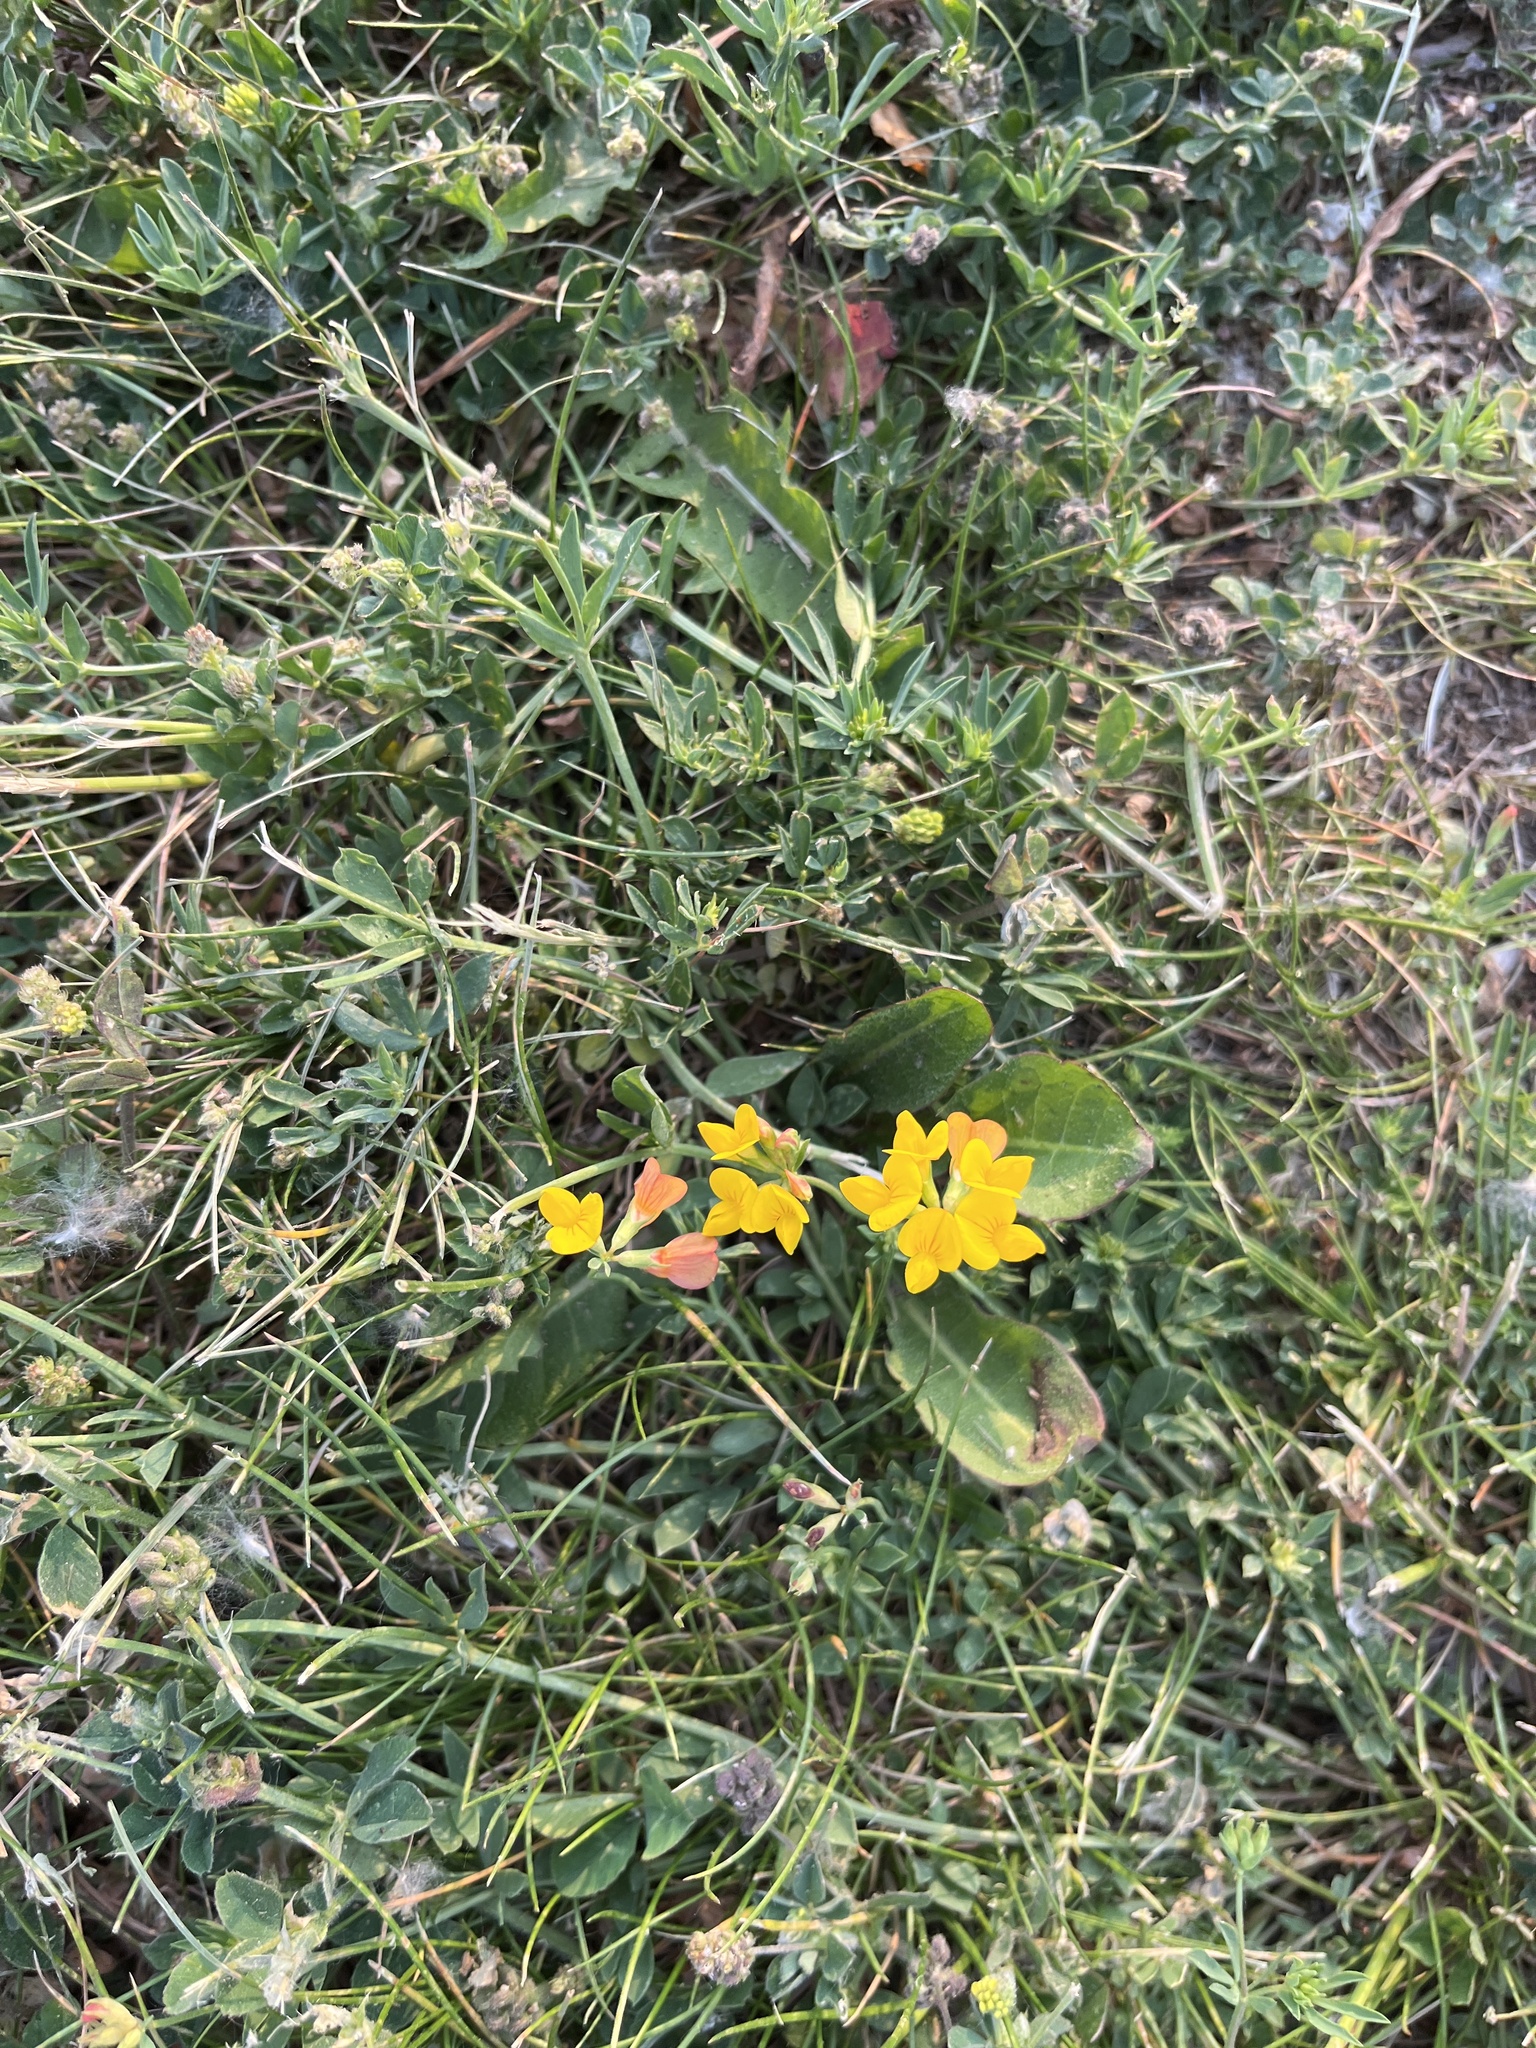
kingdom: Plantae
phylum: Tracheophyta
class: Magnoliopsida
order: Fabales
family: Fabaceae
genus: Lotus
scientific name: Lotus tenuis
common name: Narrow-leaved bird's-foot-trefoil
